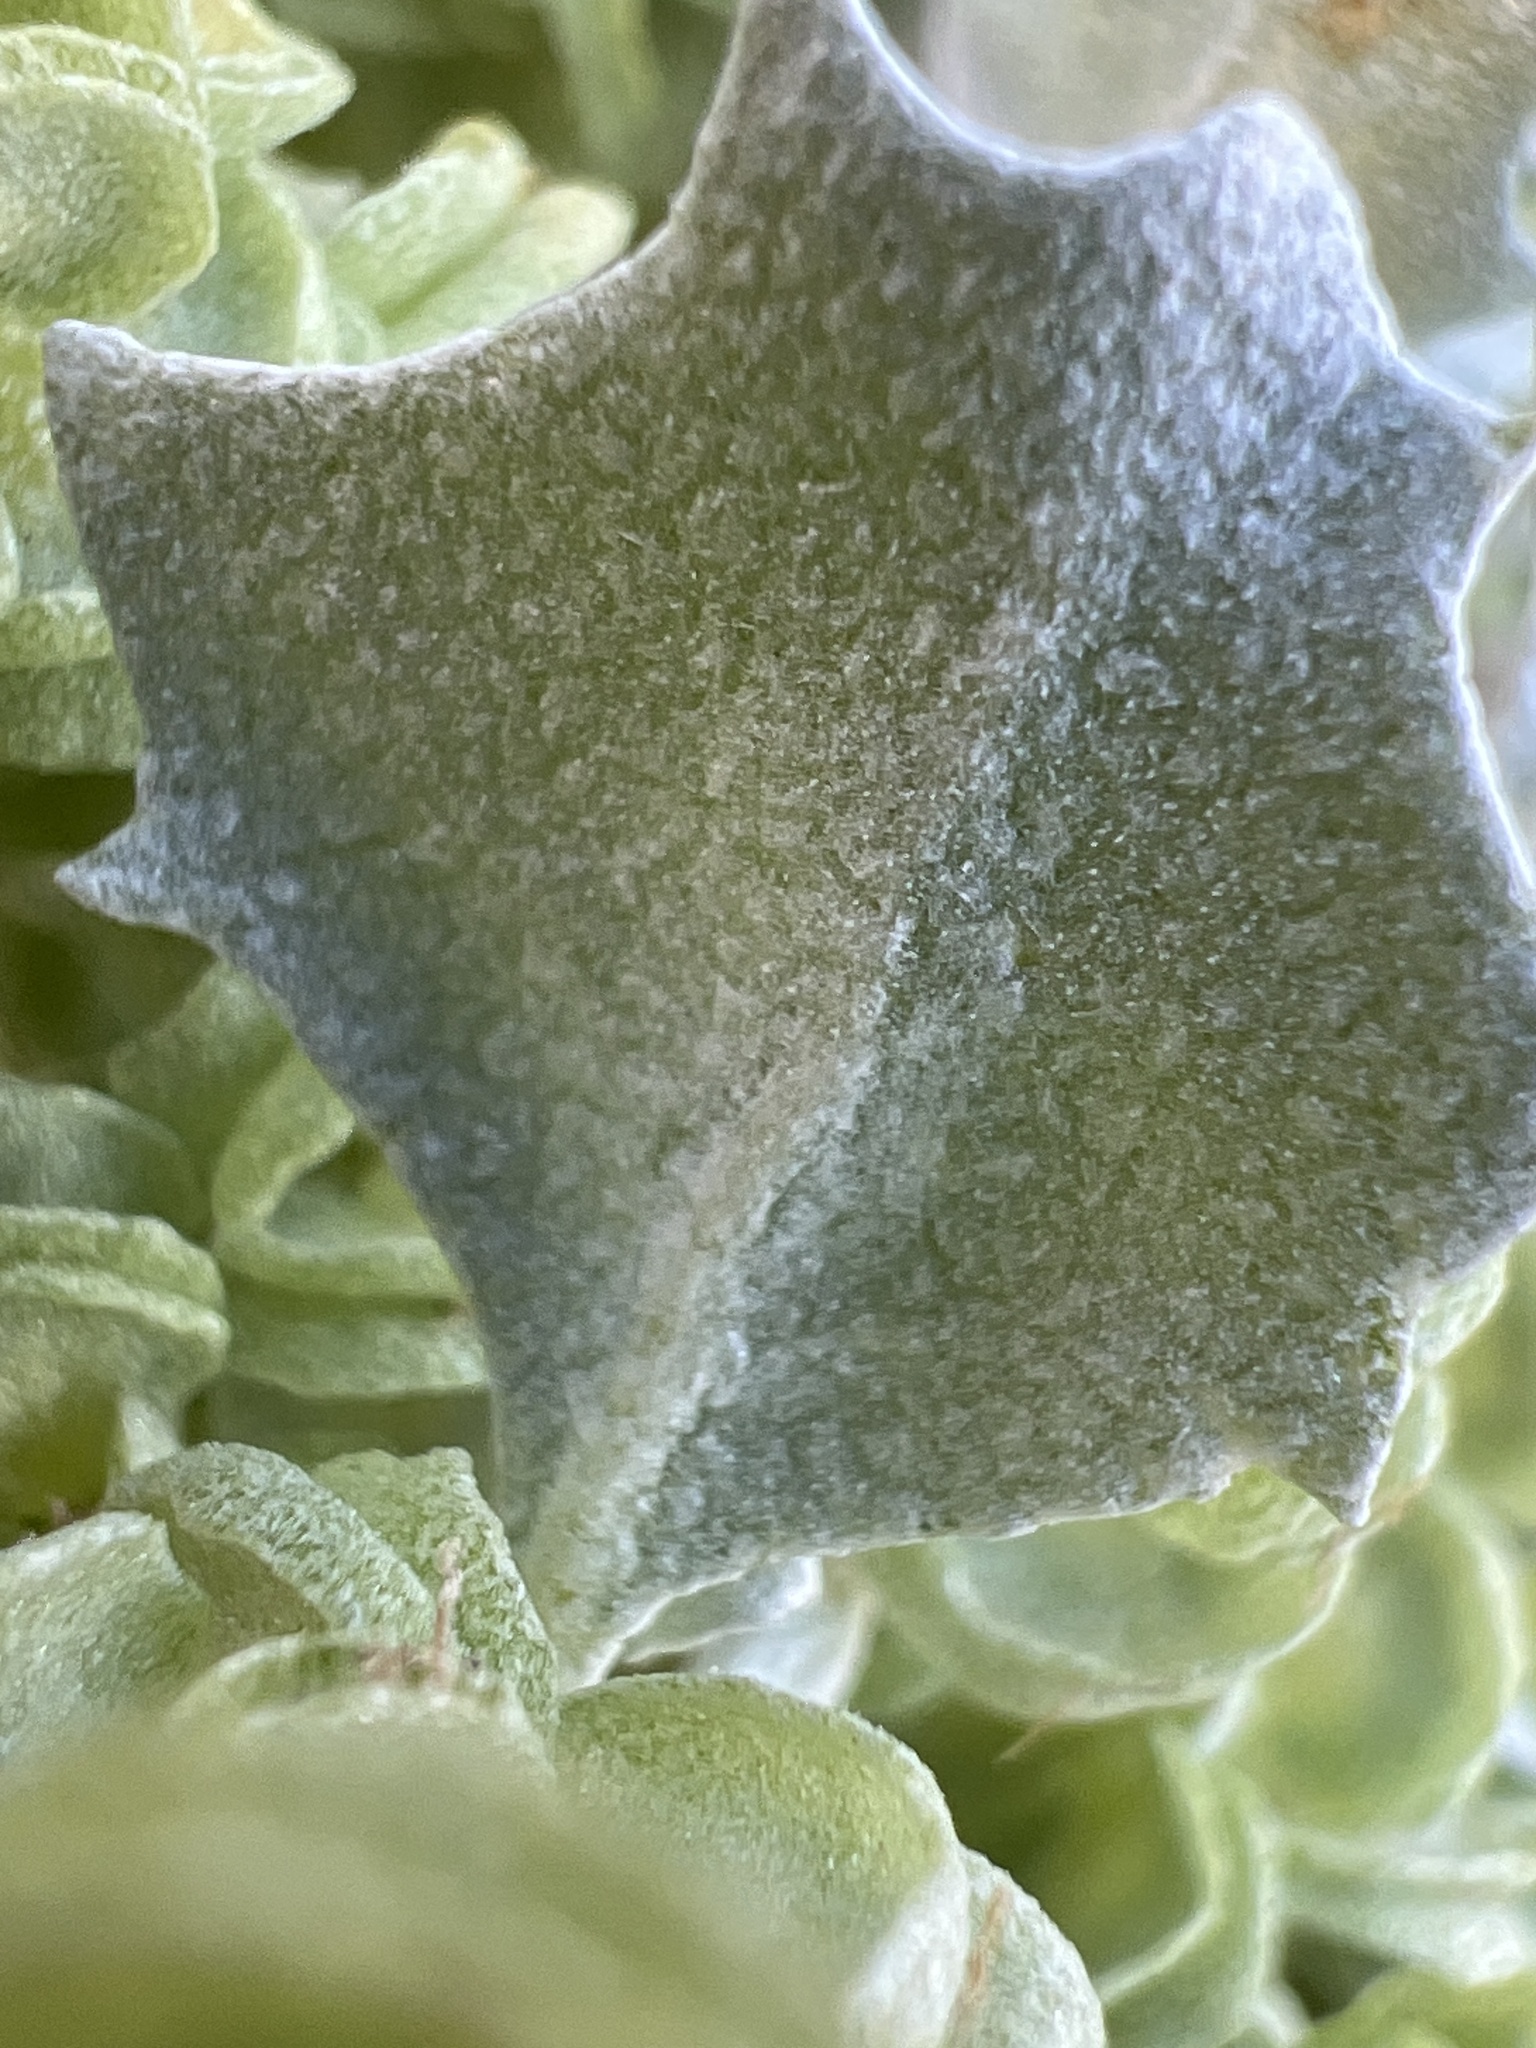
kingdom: Plantae
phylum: Tracheophyta
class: Magnoliopsida
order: Caryophyllales
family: Amaranthaceae
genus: Atriplex
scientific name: Atriplex hymenelytra
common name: Desert-holly
